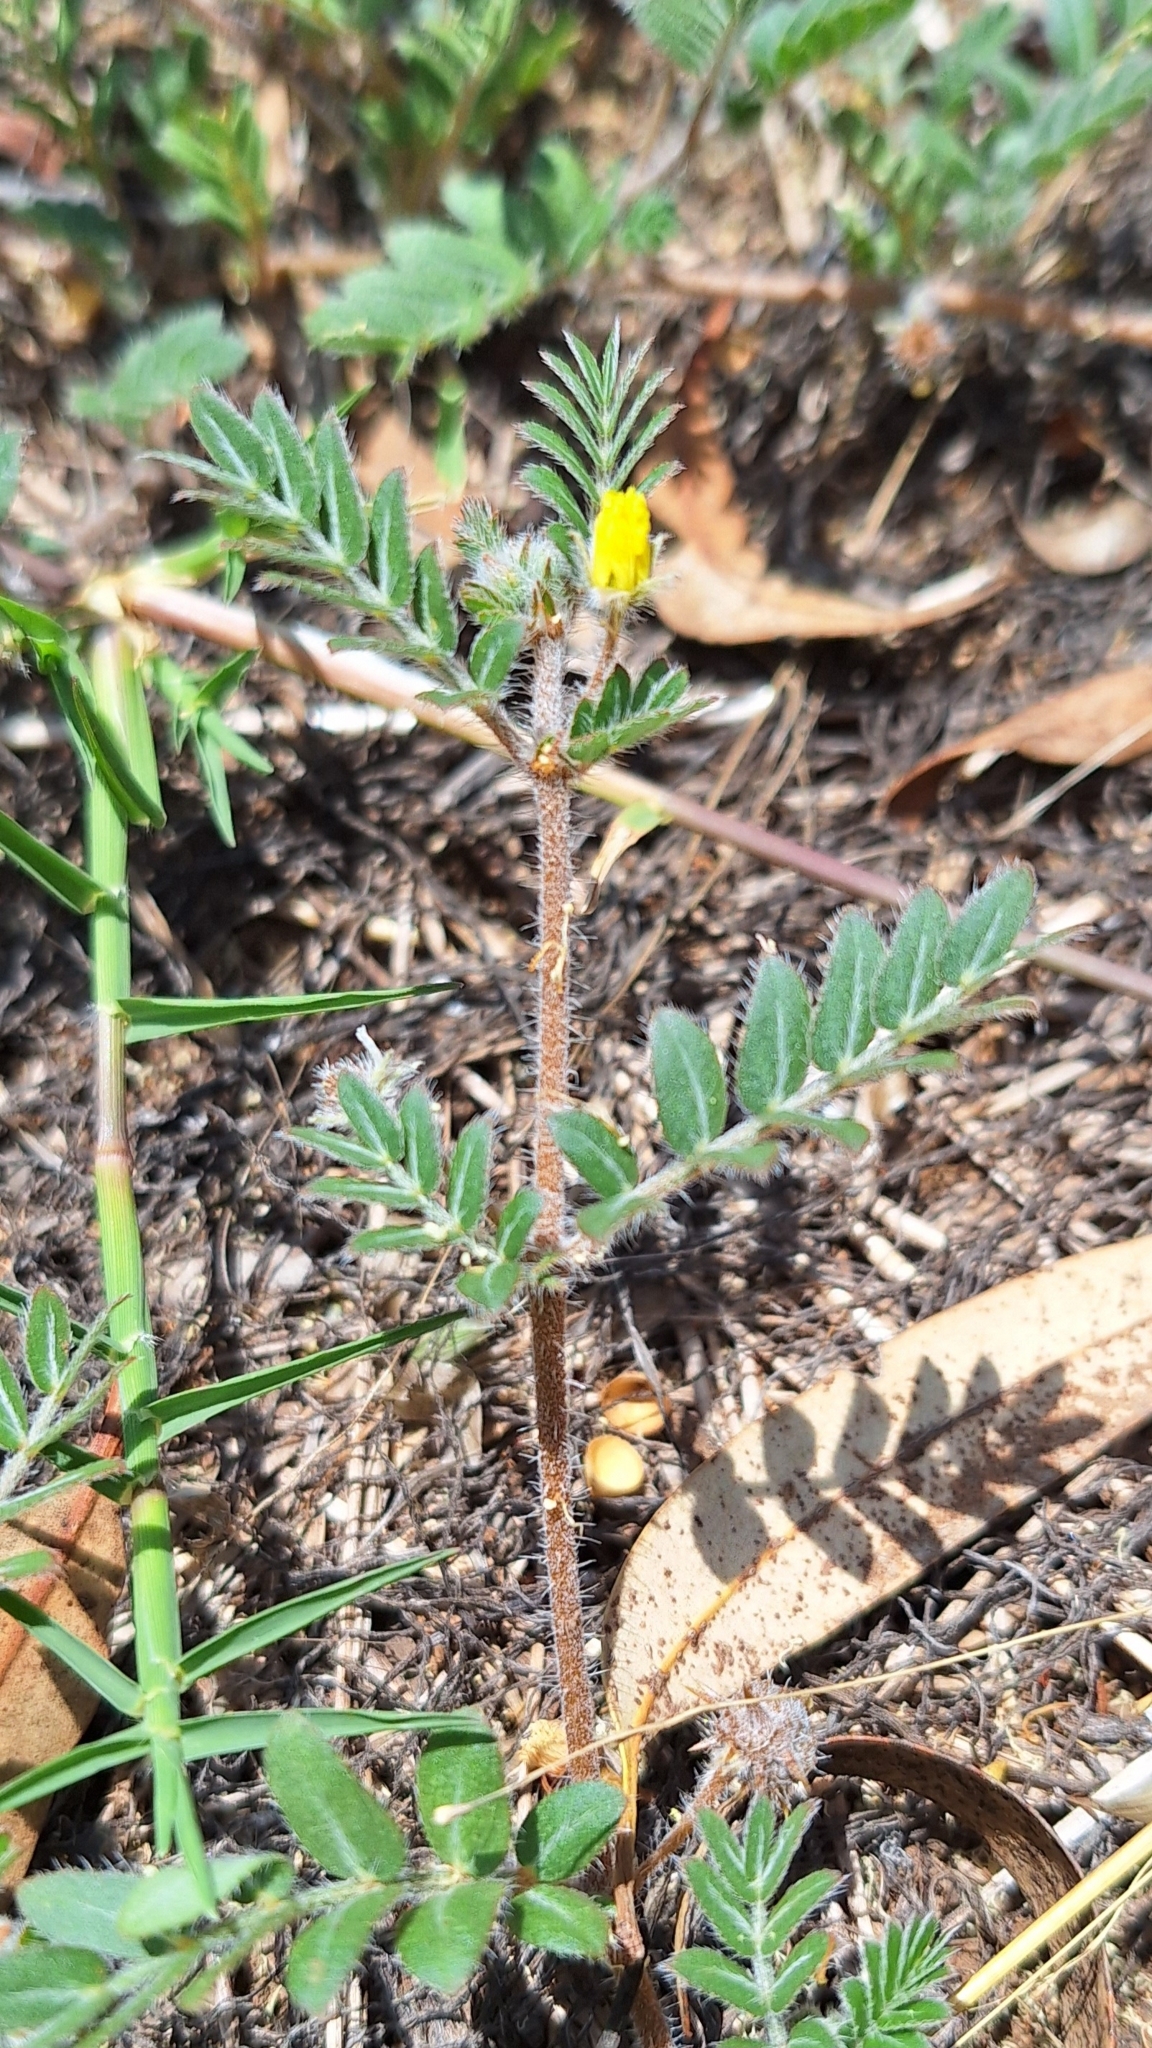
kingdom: Plantae
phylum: Tracheophyta
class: Magnoliopsida
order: Zygophyllales
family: Zygophyllaceae
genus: Tribulus
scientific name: Tribulus terrestris
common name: Puncturevine
